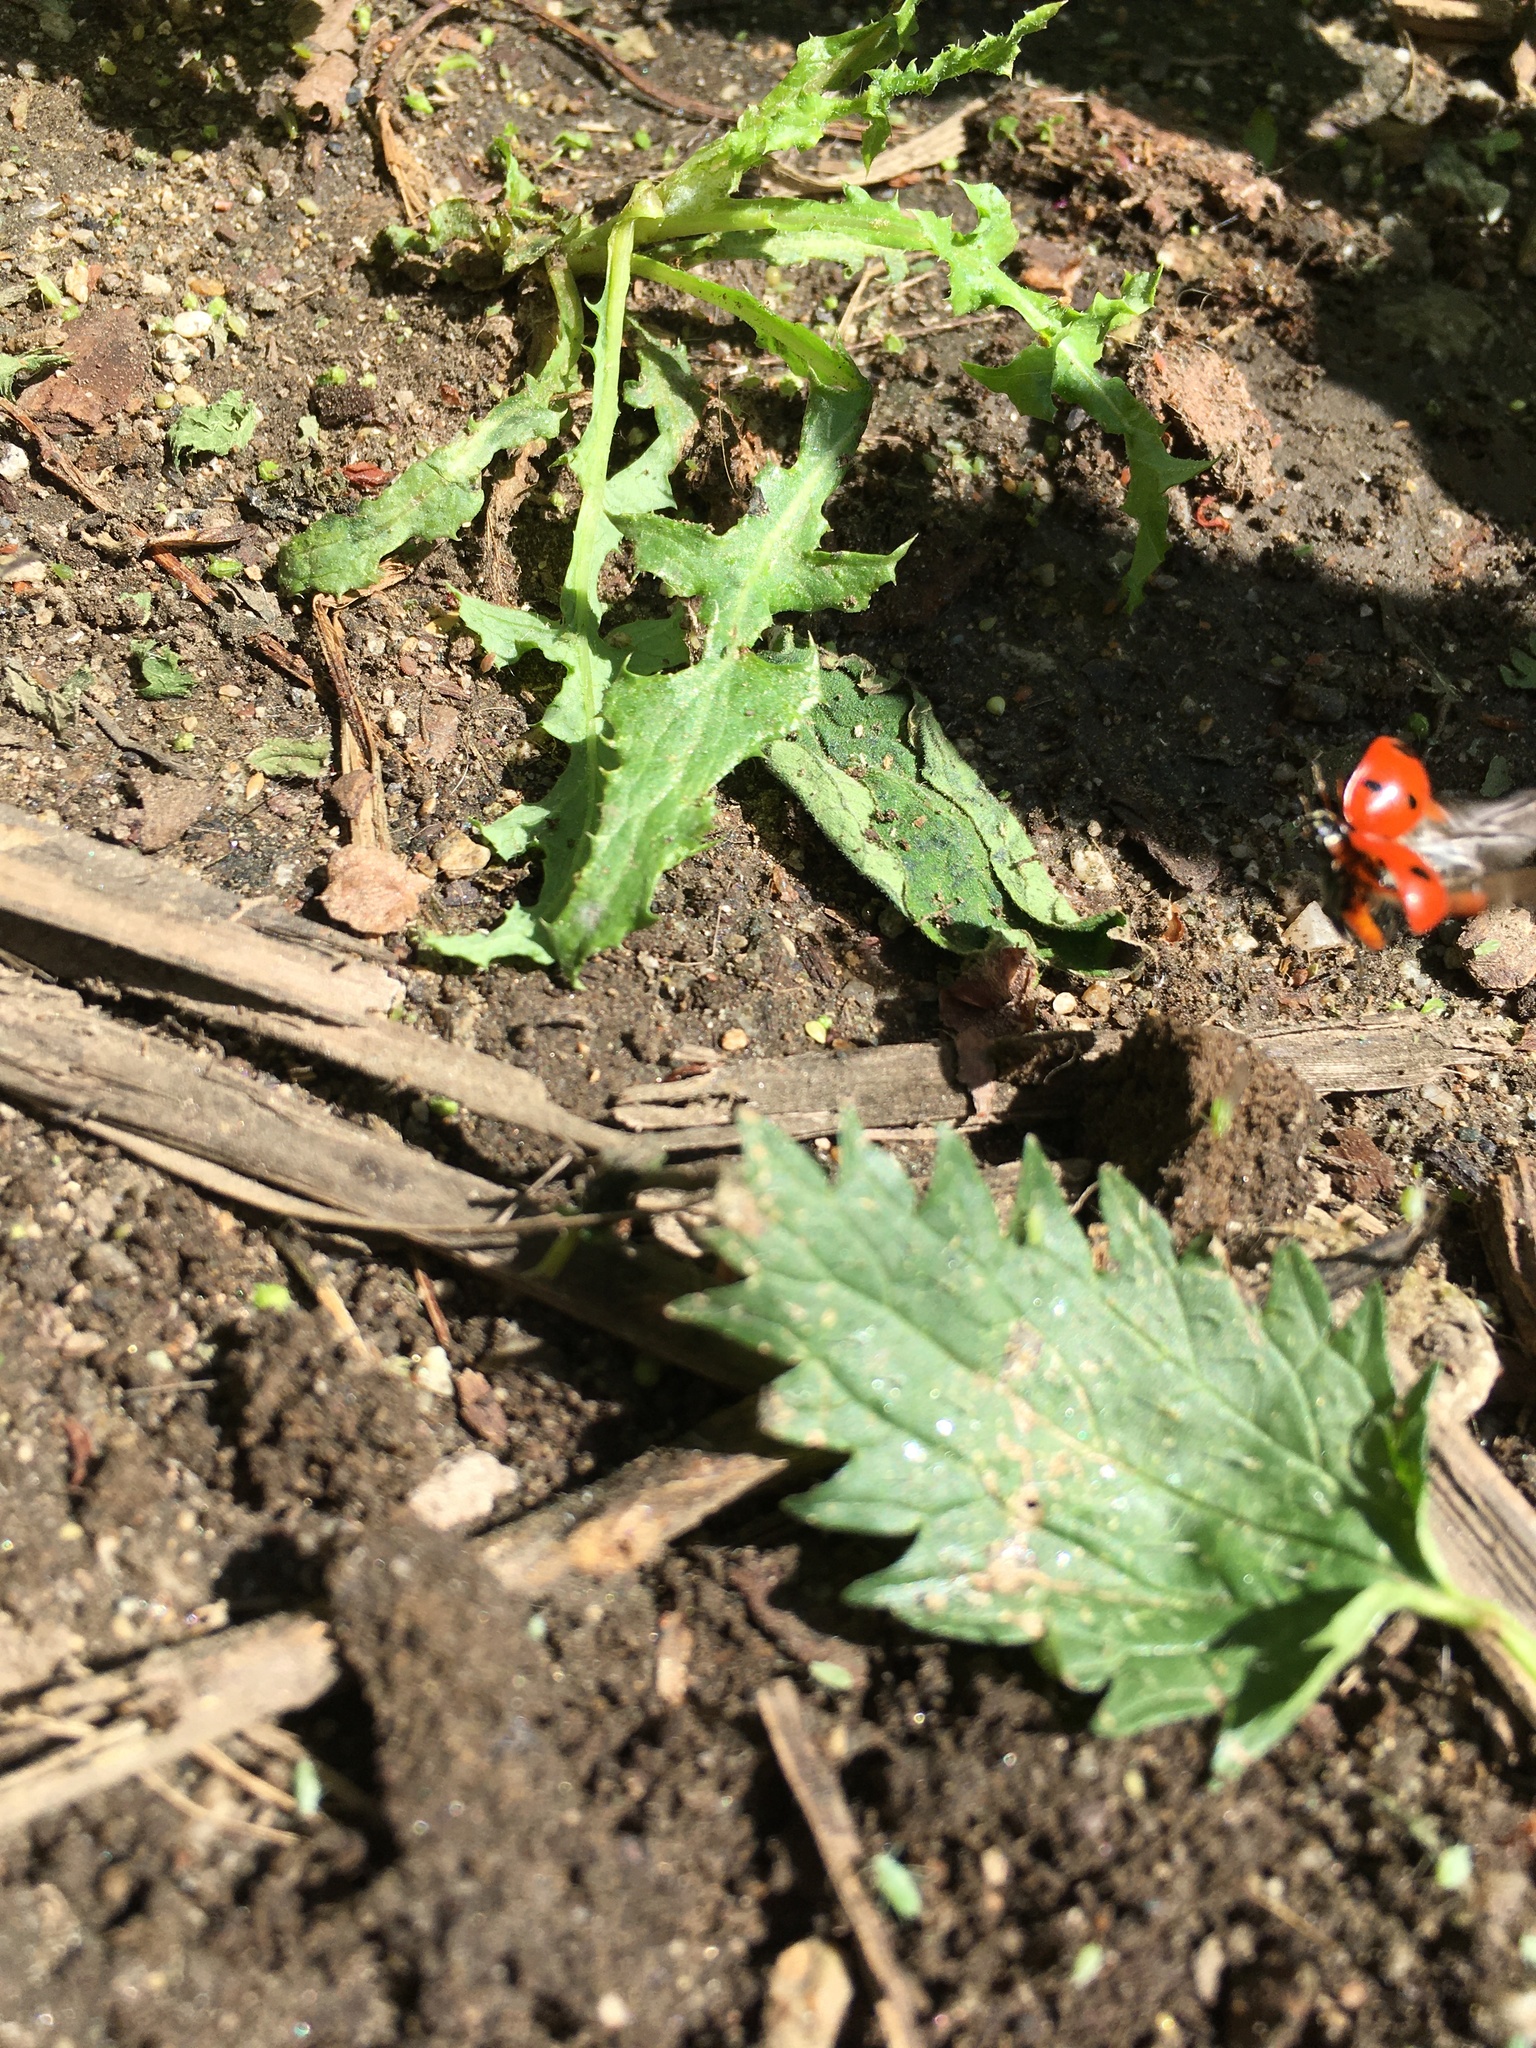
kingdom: Animalia
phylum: Arthropoda
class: Insecta
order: Coleoptera
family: Coccinellidae
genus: Coccinella
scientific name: Coccinella septempunctata
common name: Sevenspotted lady beetle
